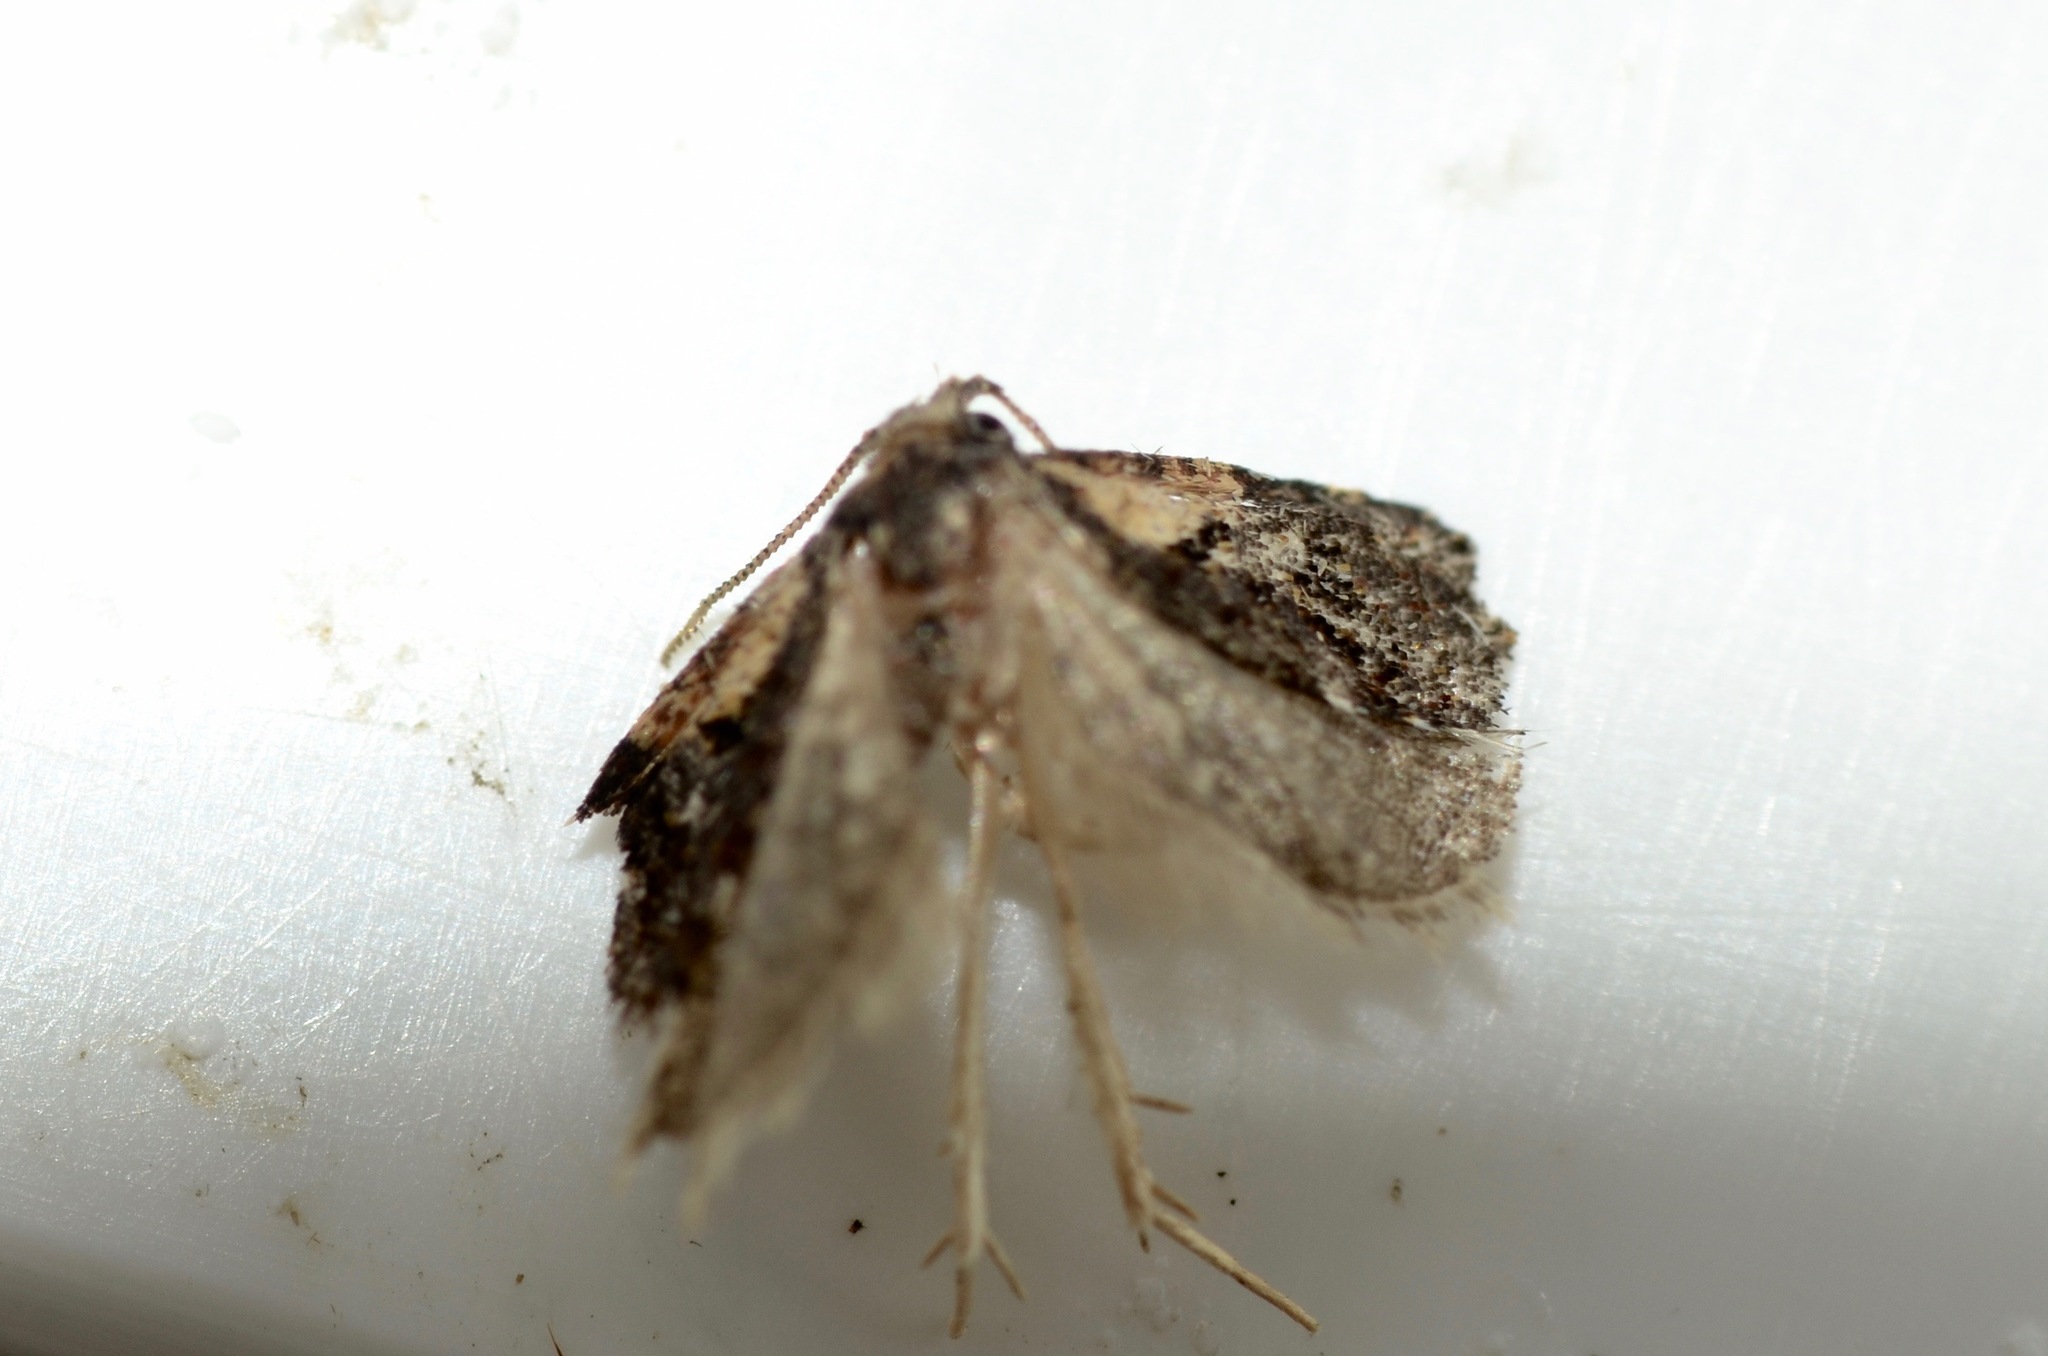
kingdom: Animalia
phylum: Arthropoda
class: Insecta
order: Lepidoptera
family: Tortricidae
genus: Capua
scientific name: Capua intractana
